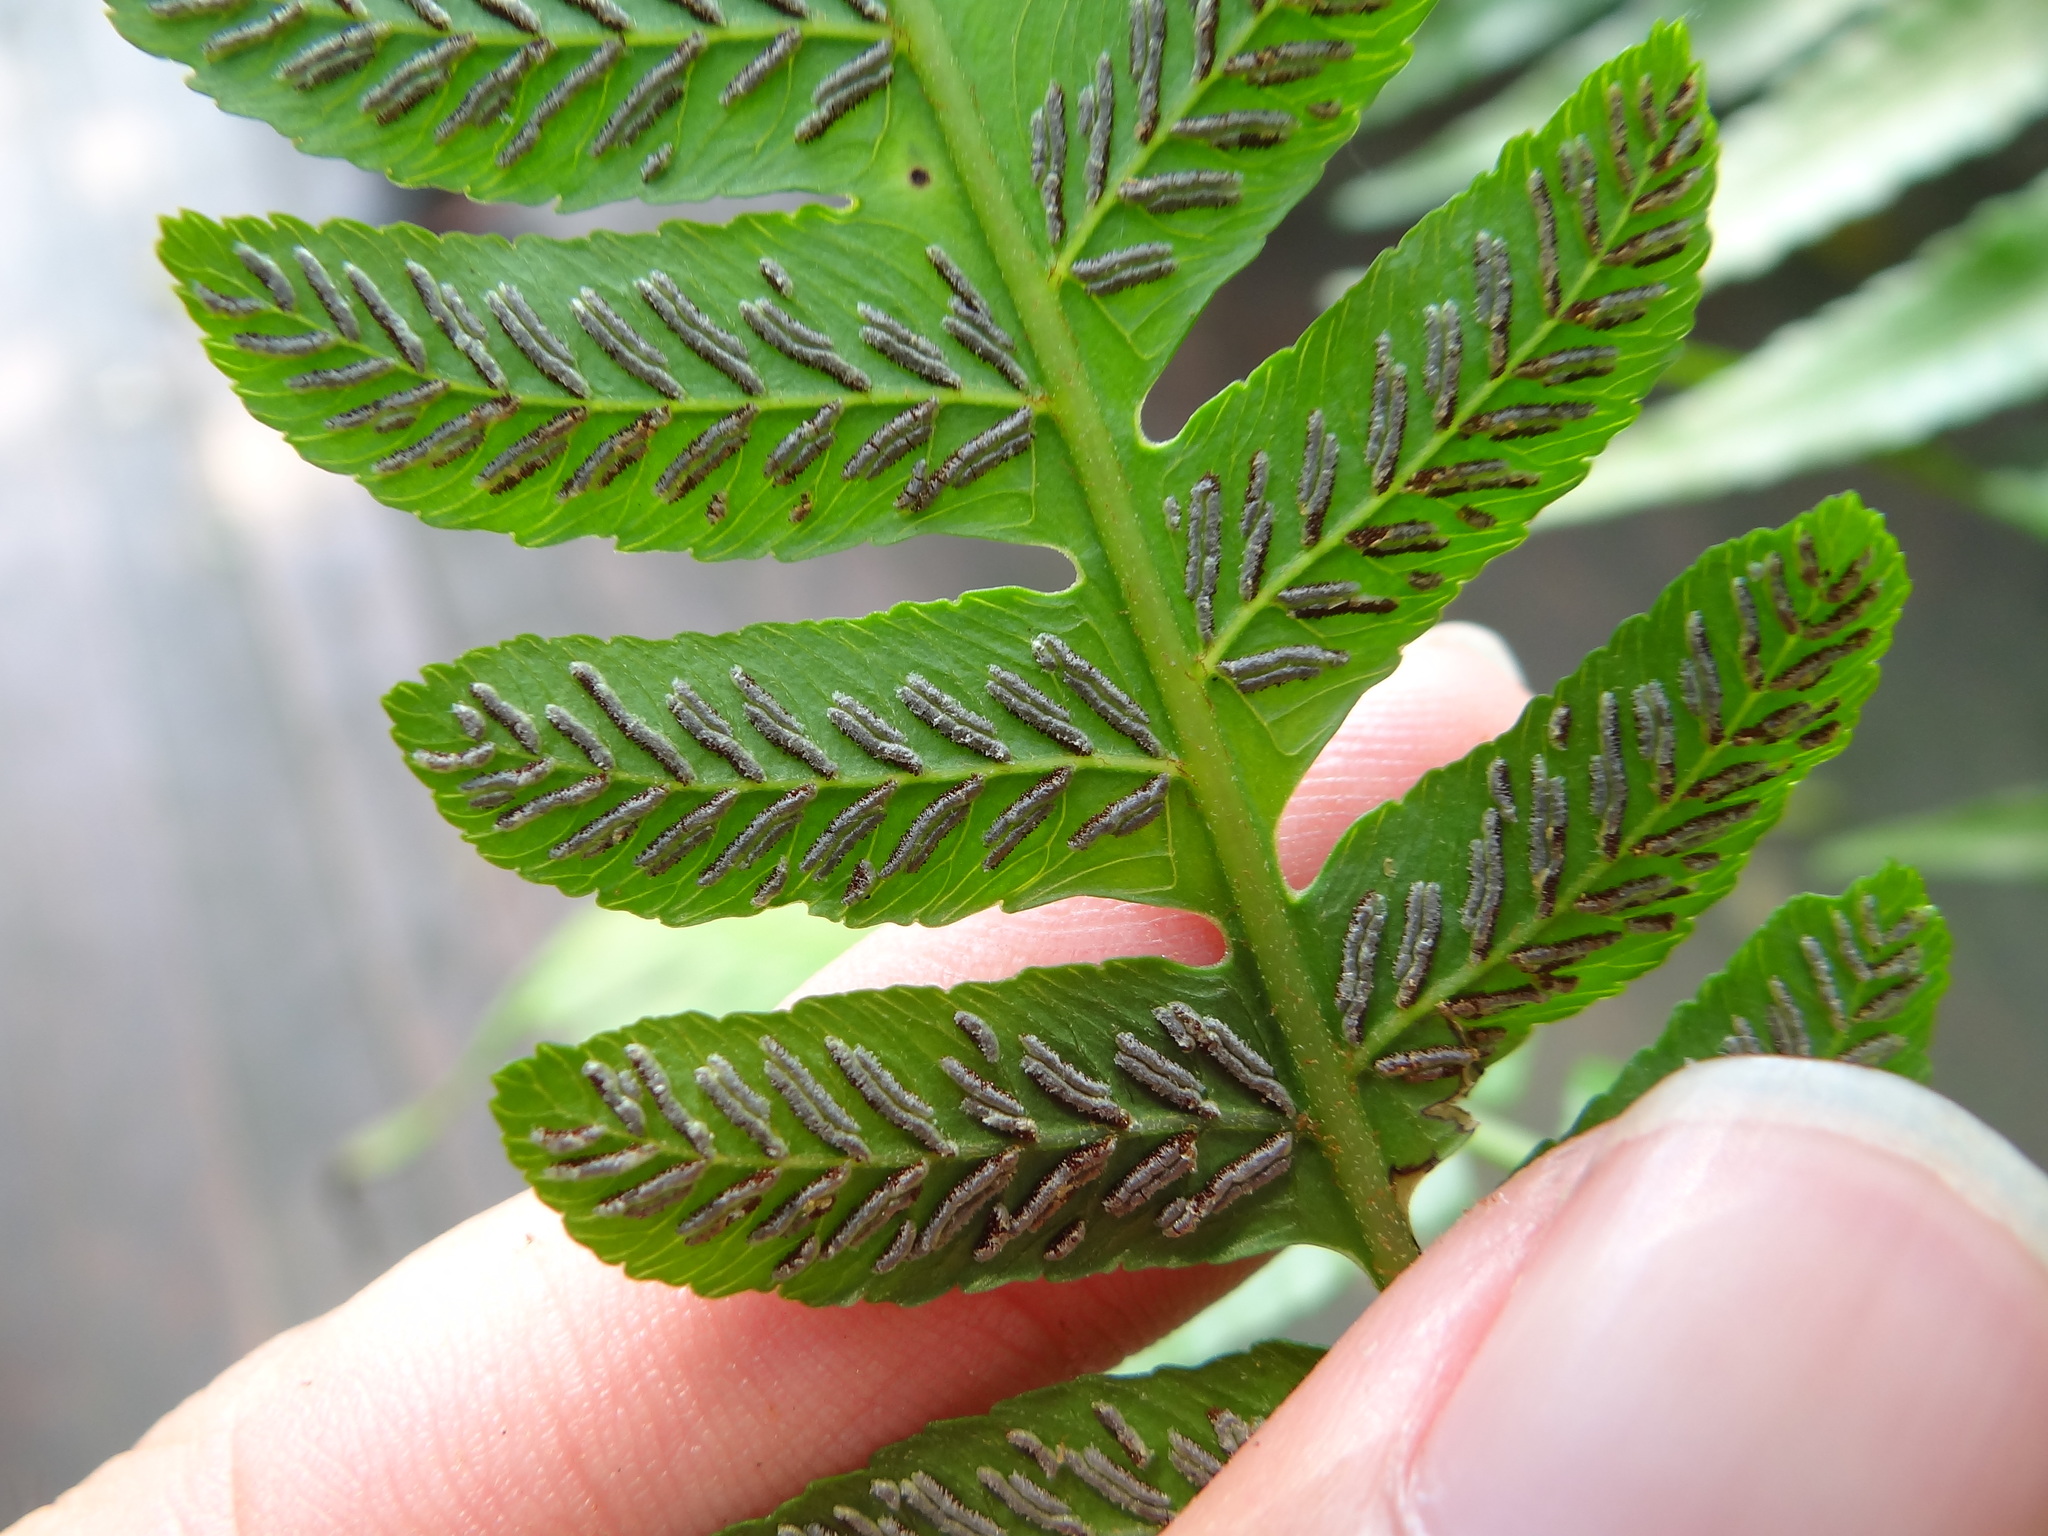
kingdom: Plantae
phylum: Tracheophyta
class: Polypodiopsida
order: Polypodiales
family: Athyriaceae
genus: Diplazium
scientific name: Diplazium dilatatum
